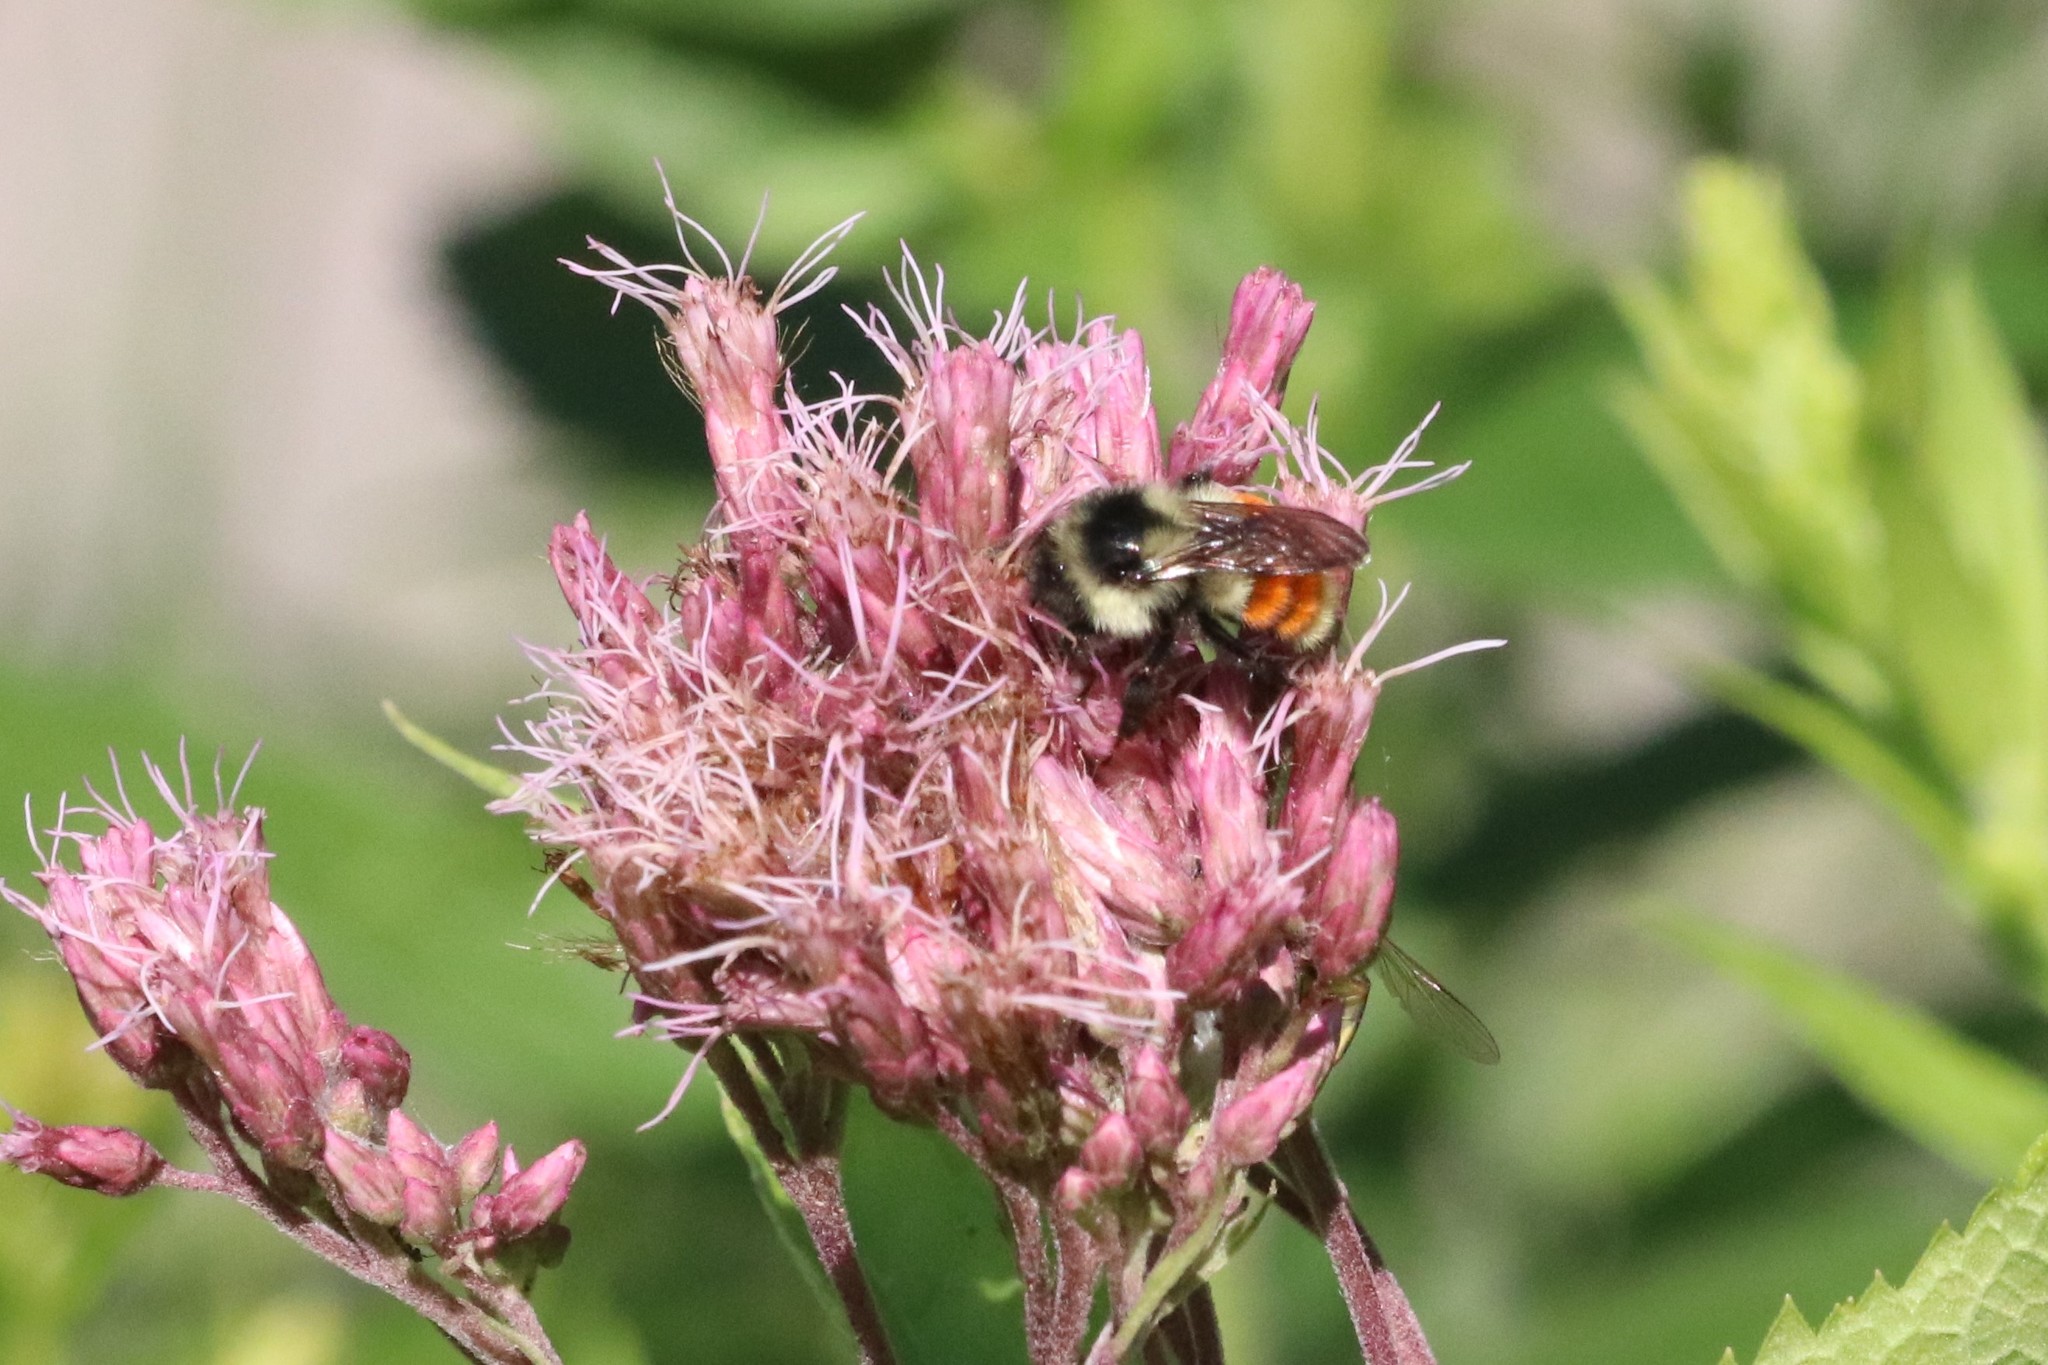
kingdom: Animalia
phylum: Arthropoda
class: Insecta
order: Hymenoptera
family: Apidae
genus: Bombus
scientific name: Bombus ternarius
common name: Tri-colored bumble bee
